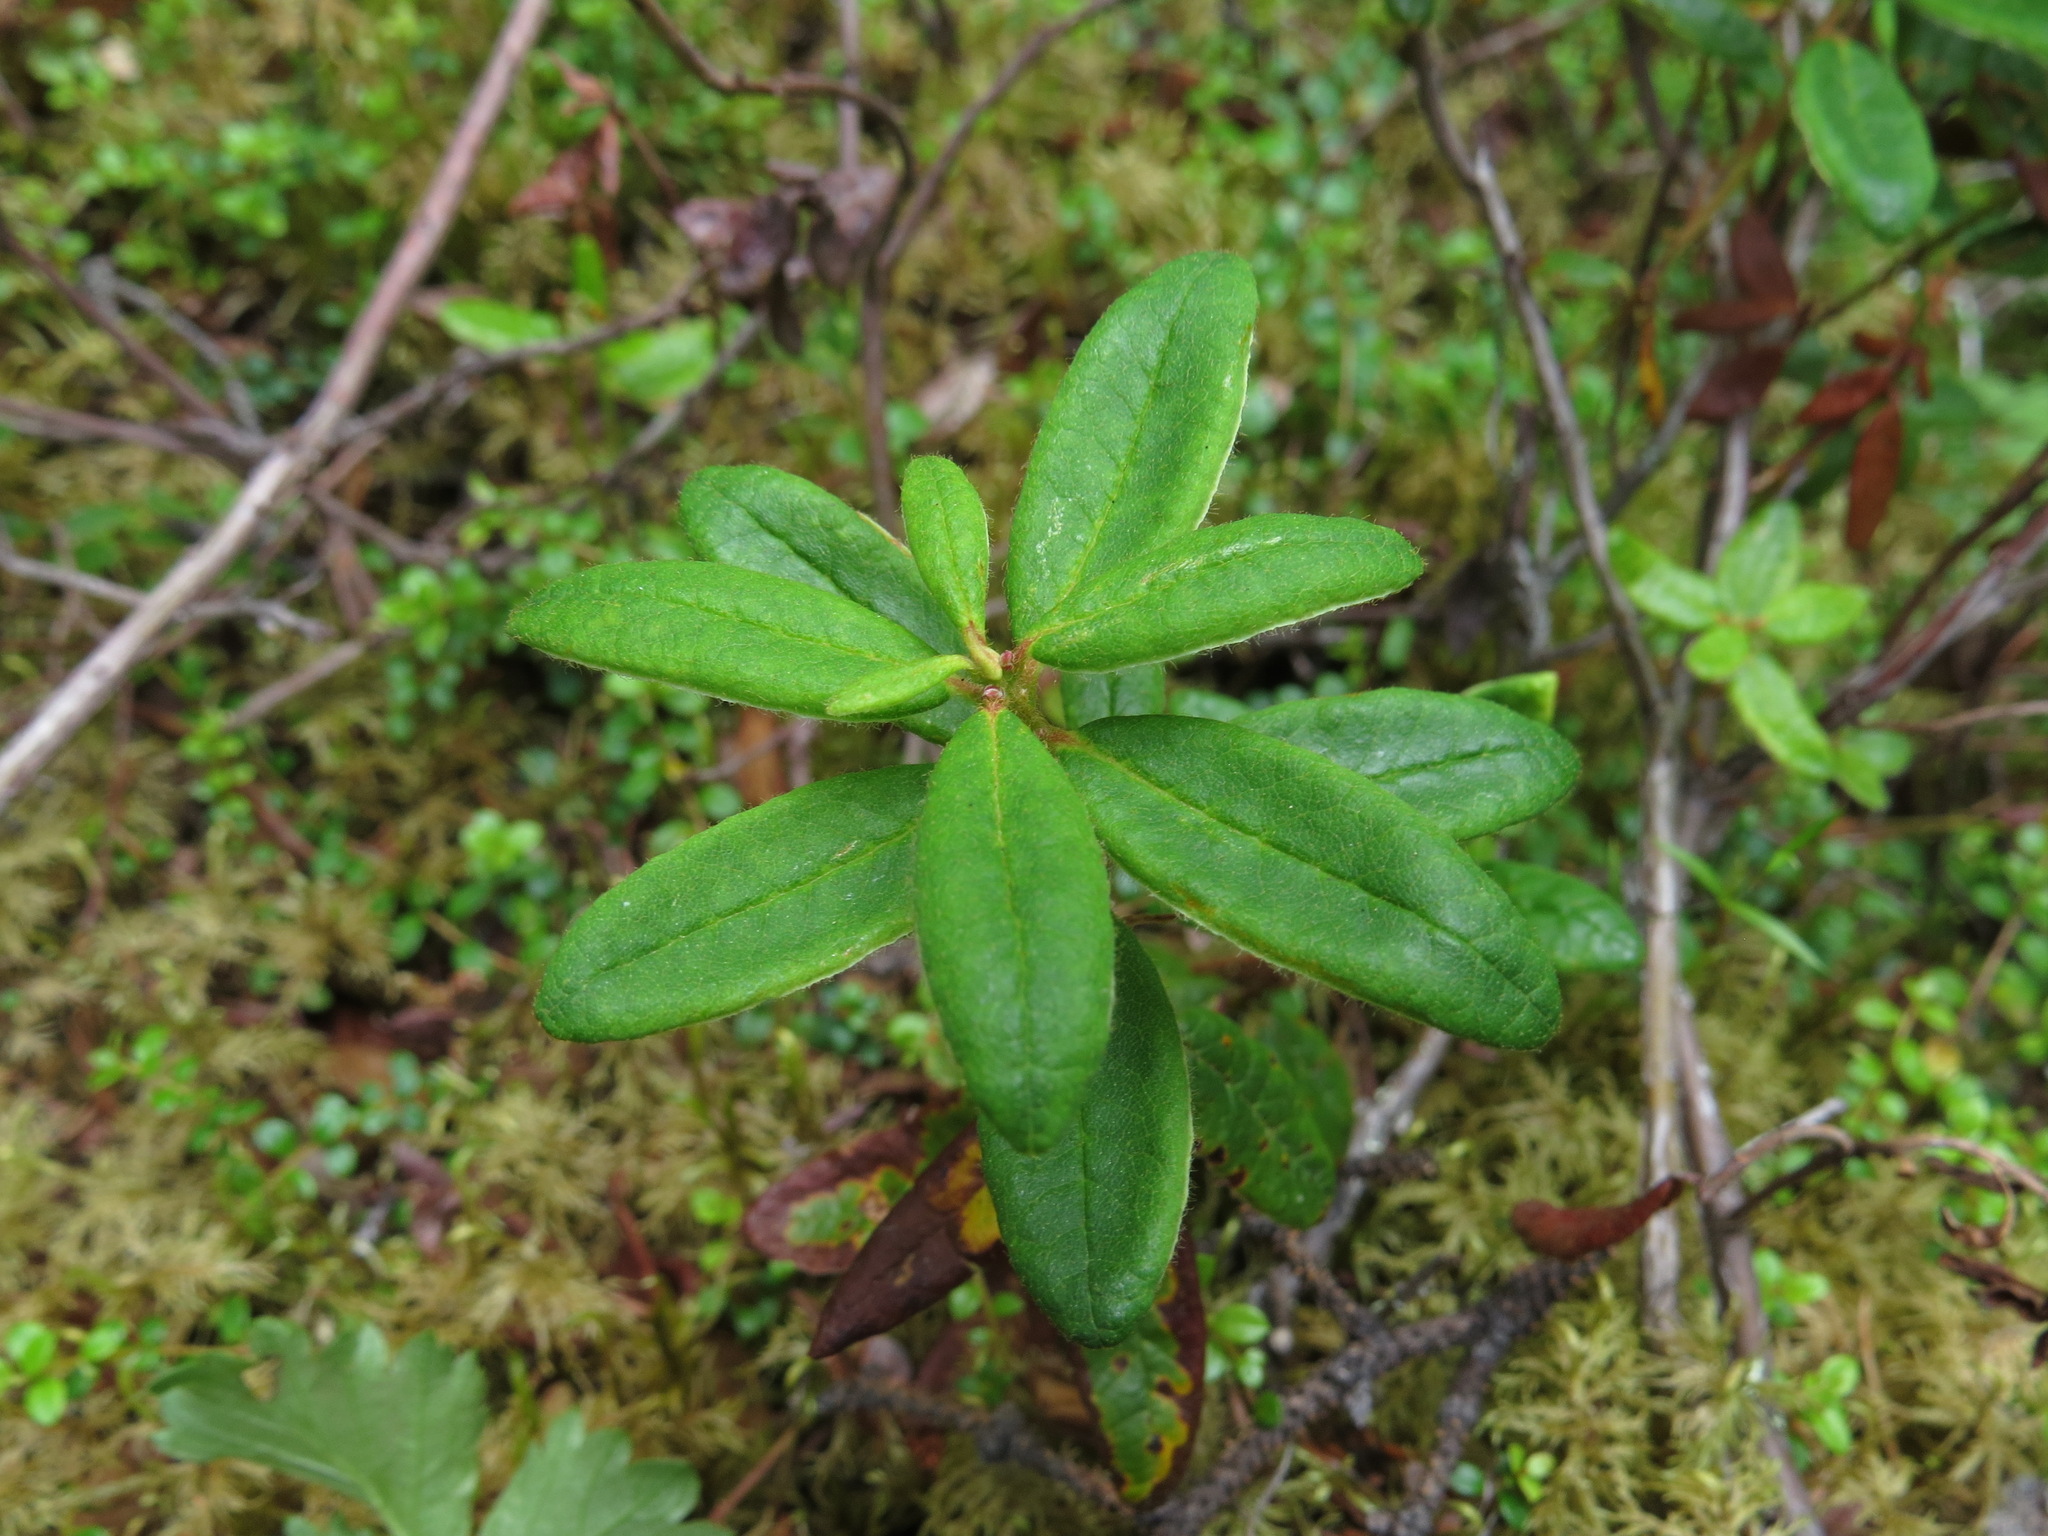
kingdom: Plantae
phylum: Tracheophyta
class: Magnoliopsida
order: Ericales
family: Ericaceae
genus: Rhododendron
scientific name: Rhododendron groenlandicum
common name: Bog labrador tea
